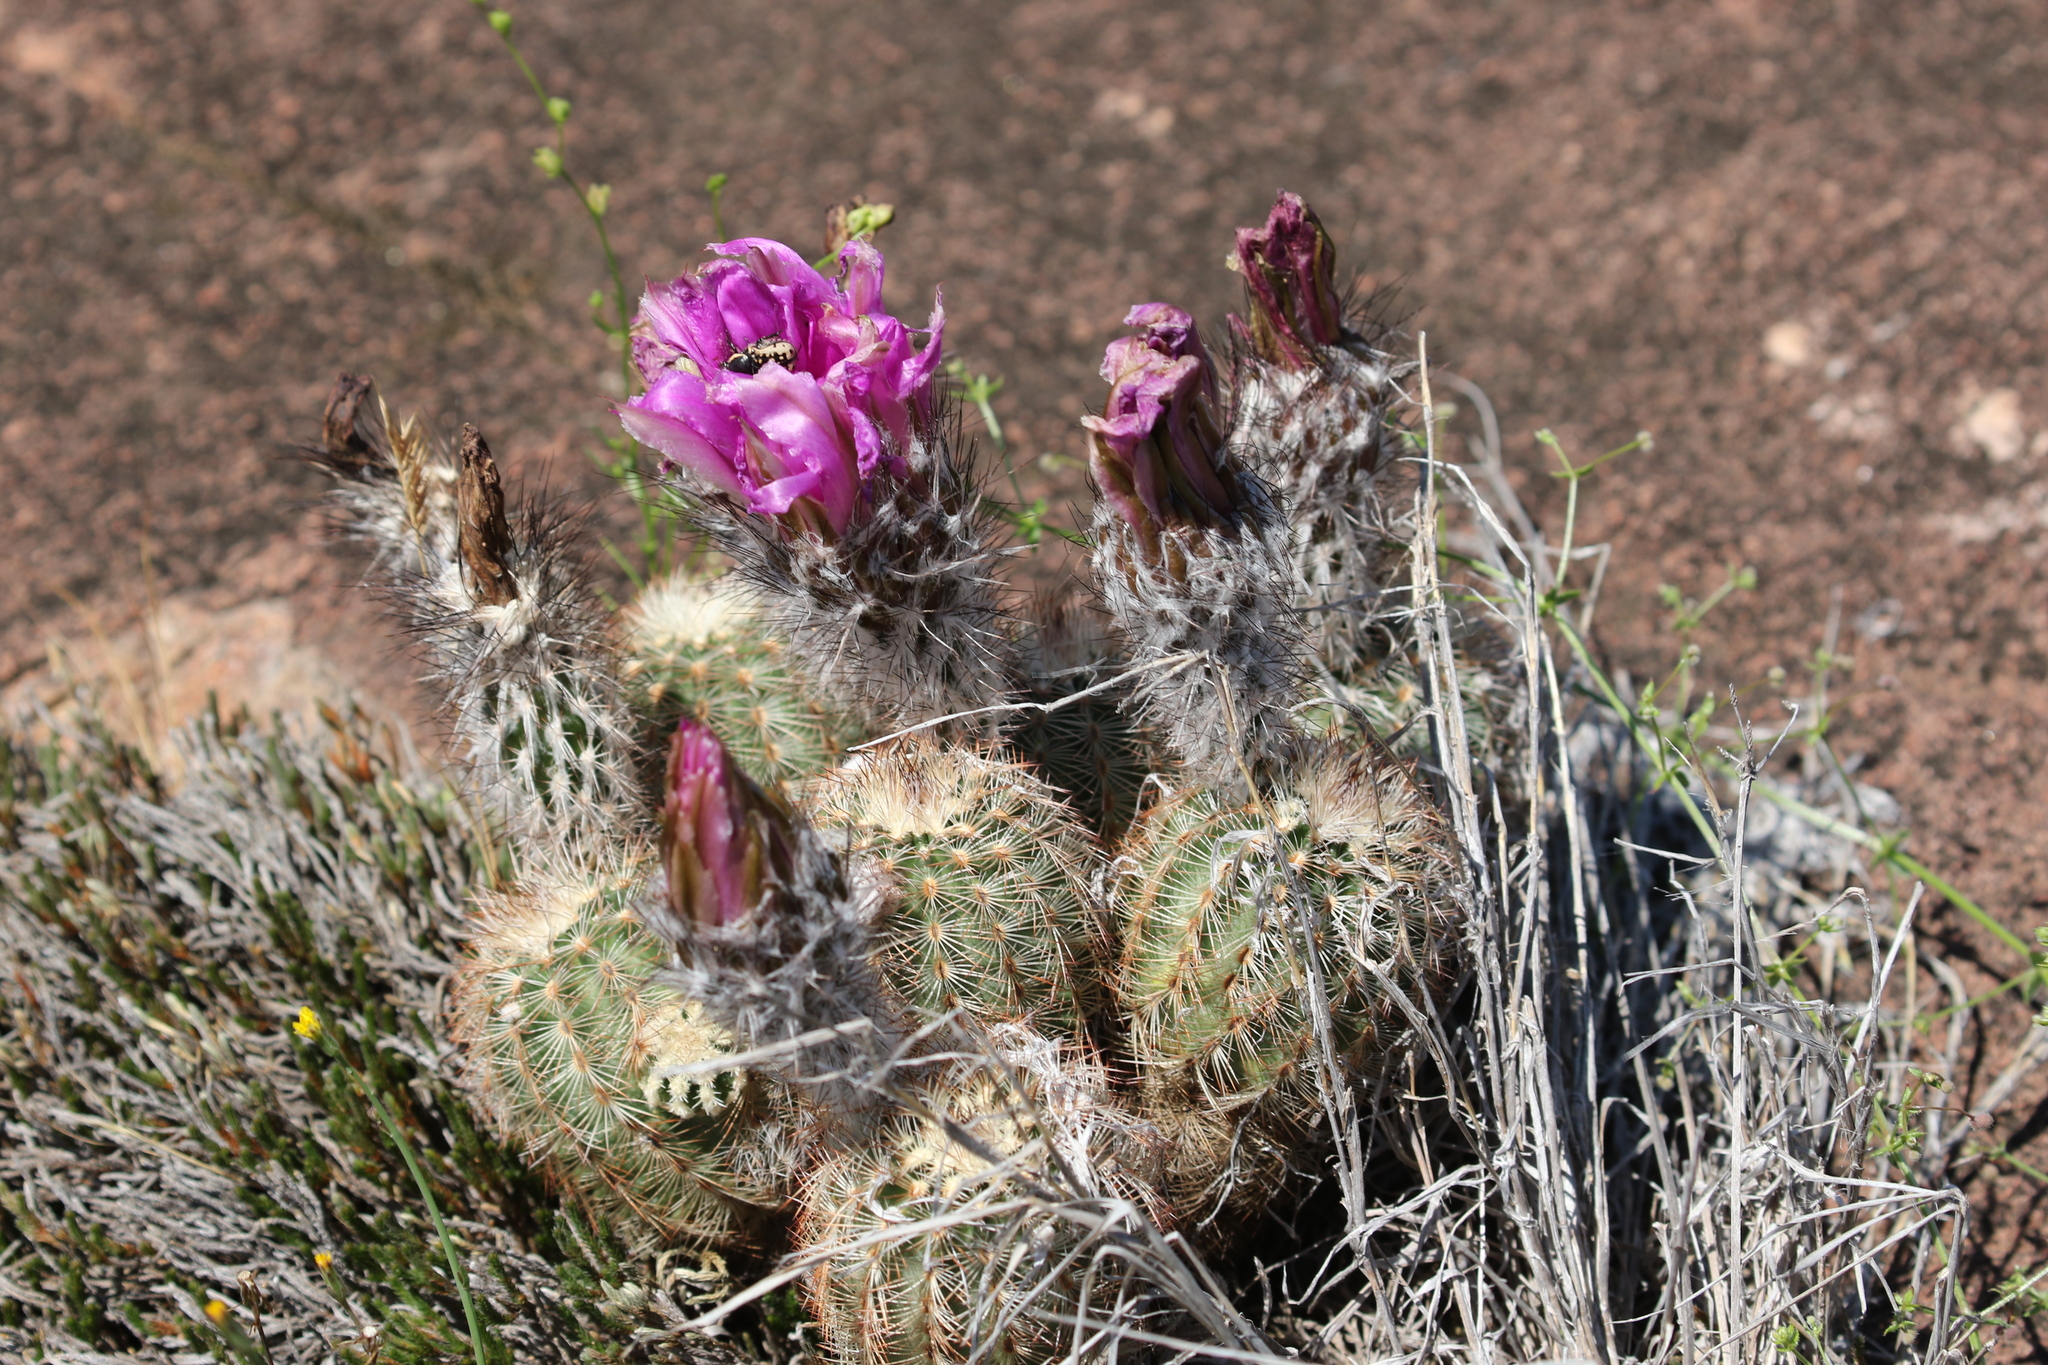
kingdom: Plantae
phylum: Tracheophyta
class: Magnoliopsida
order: Caryophyllales
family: Cactaceae
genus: Echinocereus
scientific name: Echinocereus reichenbachii
